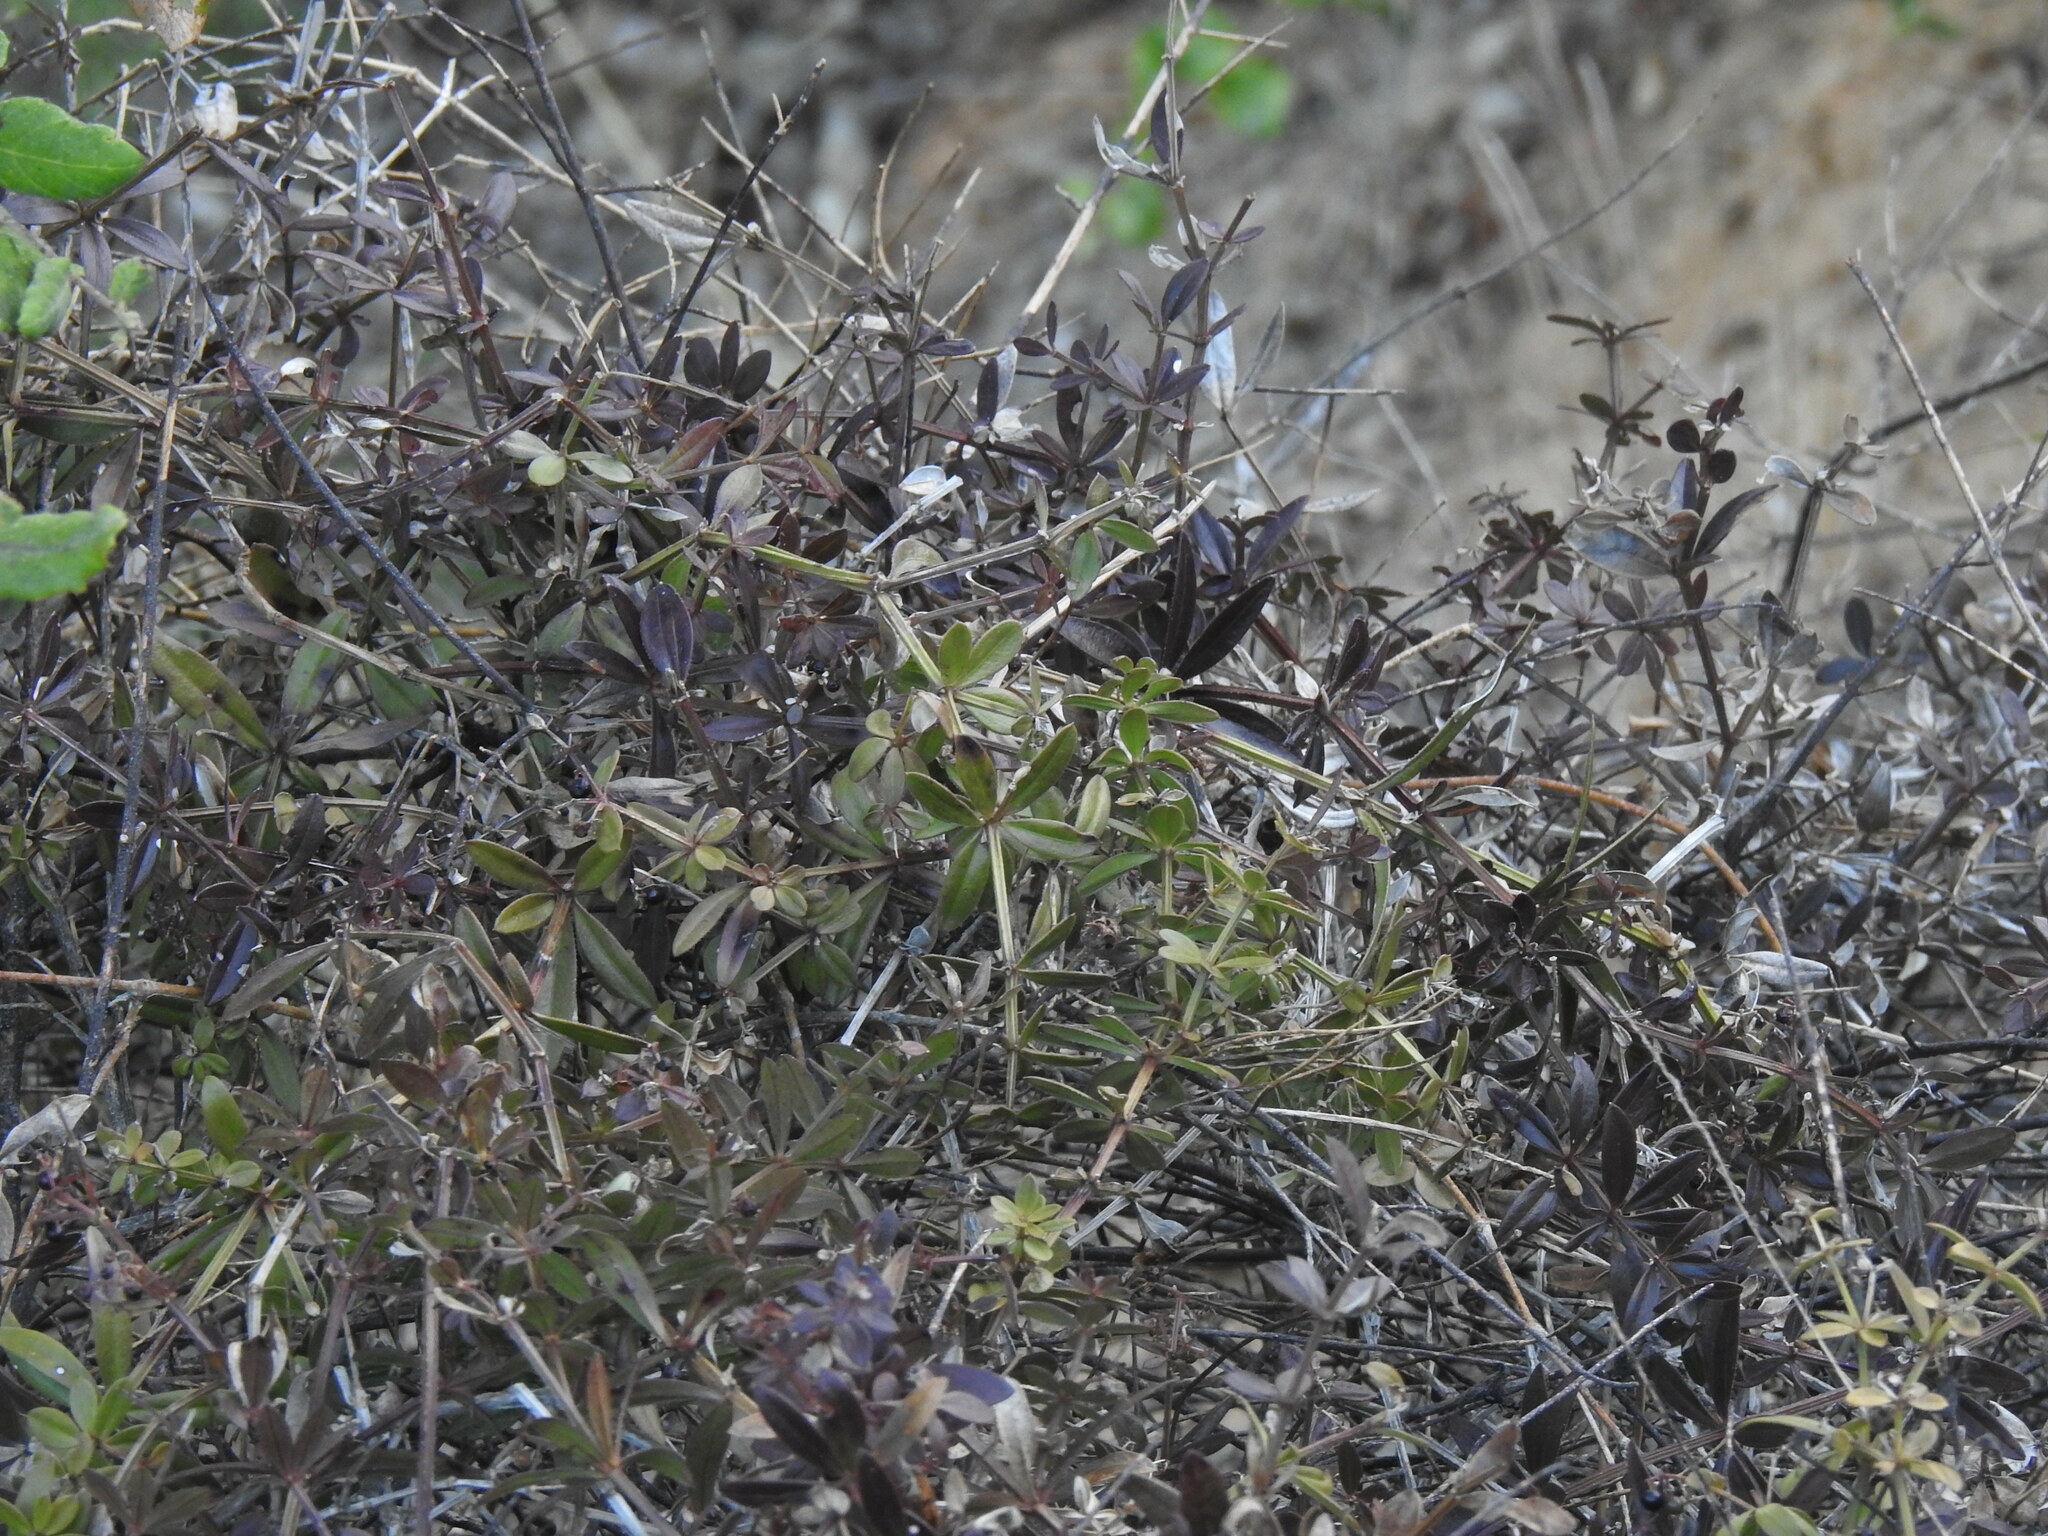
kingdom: Plantae
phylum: Tracheophyta
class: Magnoliopsida
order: Gentianales
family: Rubiaceae
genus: Rubia
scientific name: Rubia peregrina
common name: Wild madder
